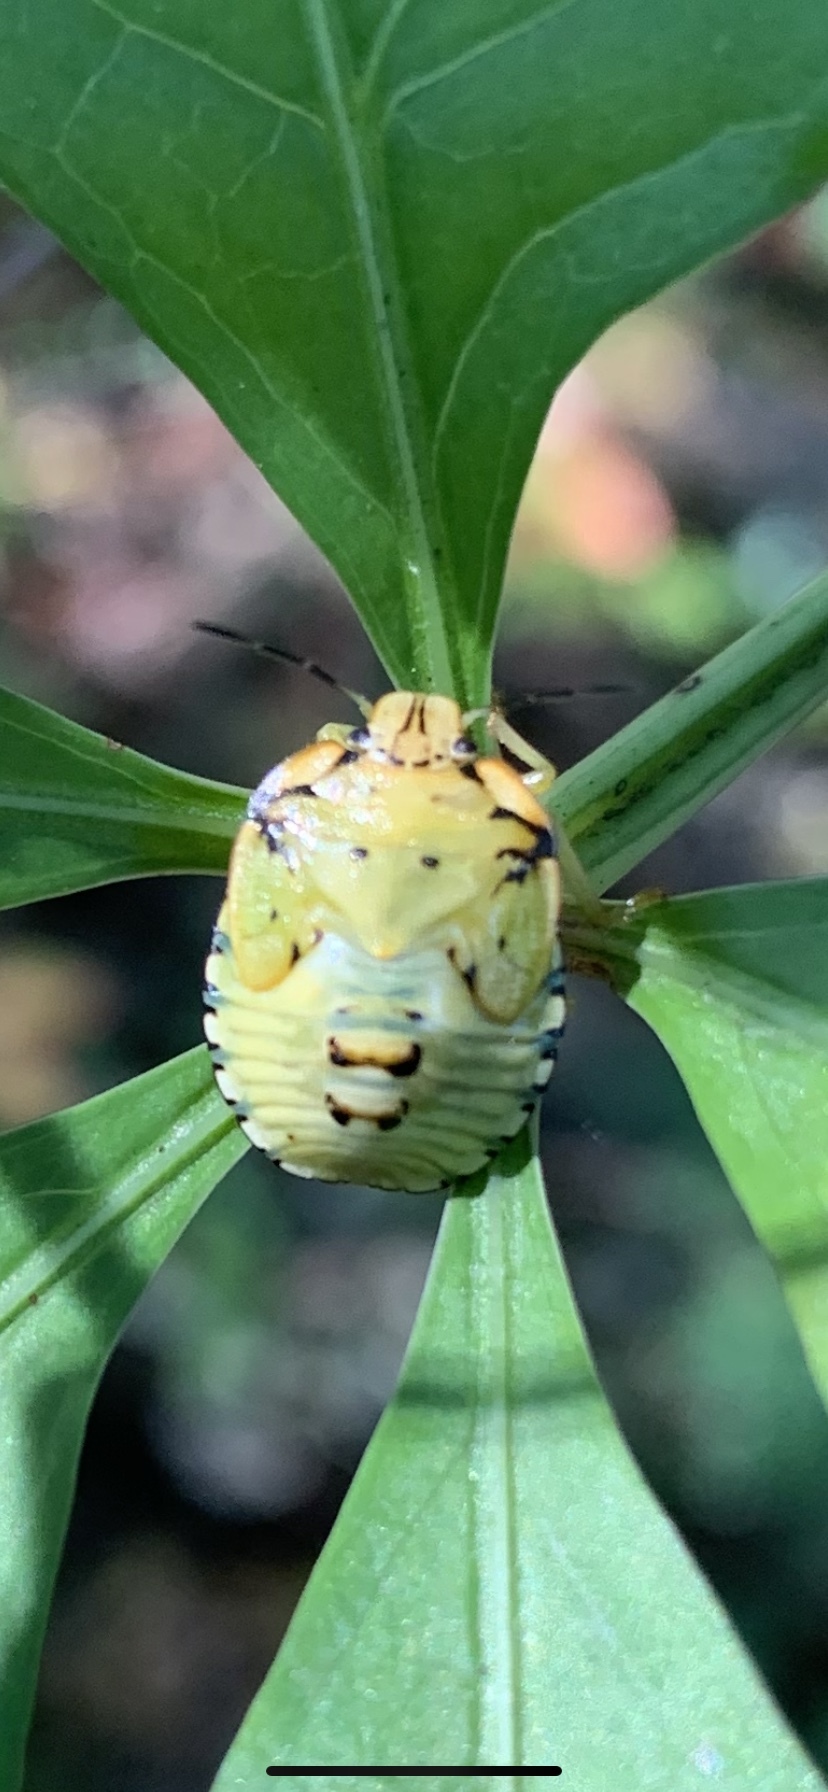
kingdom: Animalia
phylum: Arthropoda
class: Insecta
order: Hemiptera
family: Pentatomidae
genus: Chinavia
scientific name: Chinavia hilaris
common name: Green stink bug
